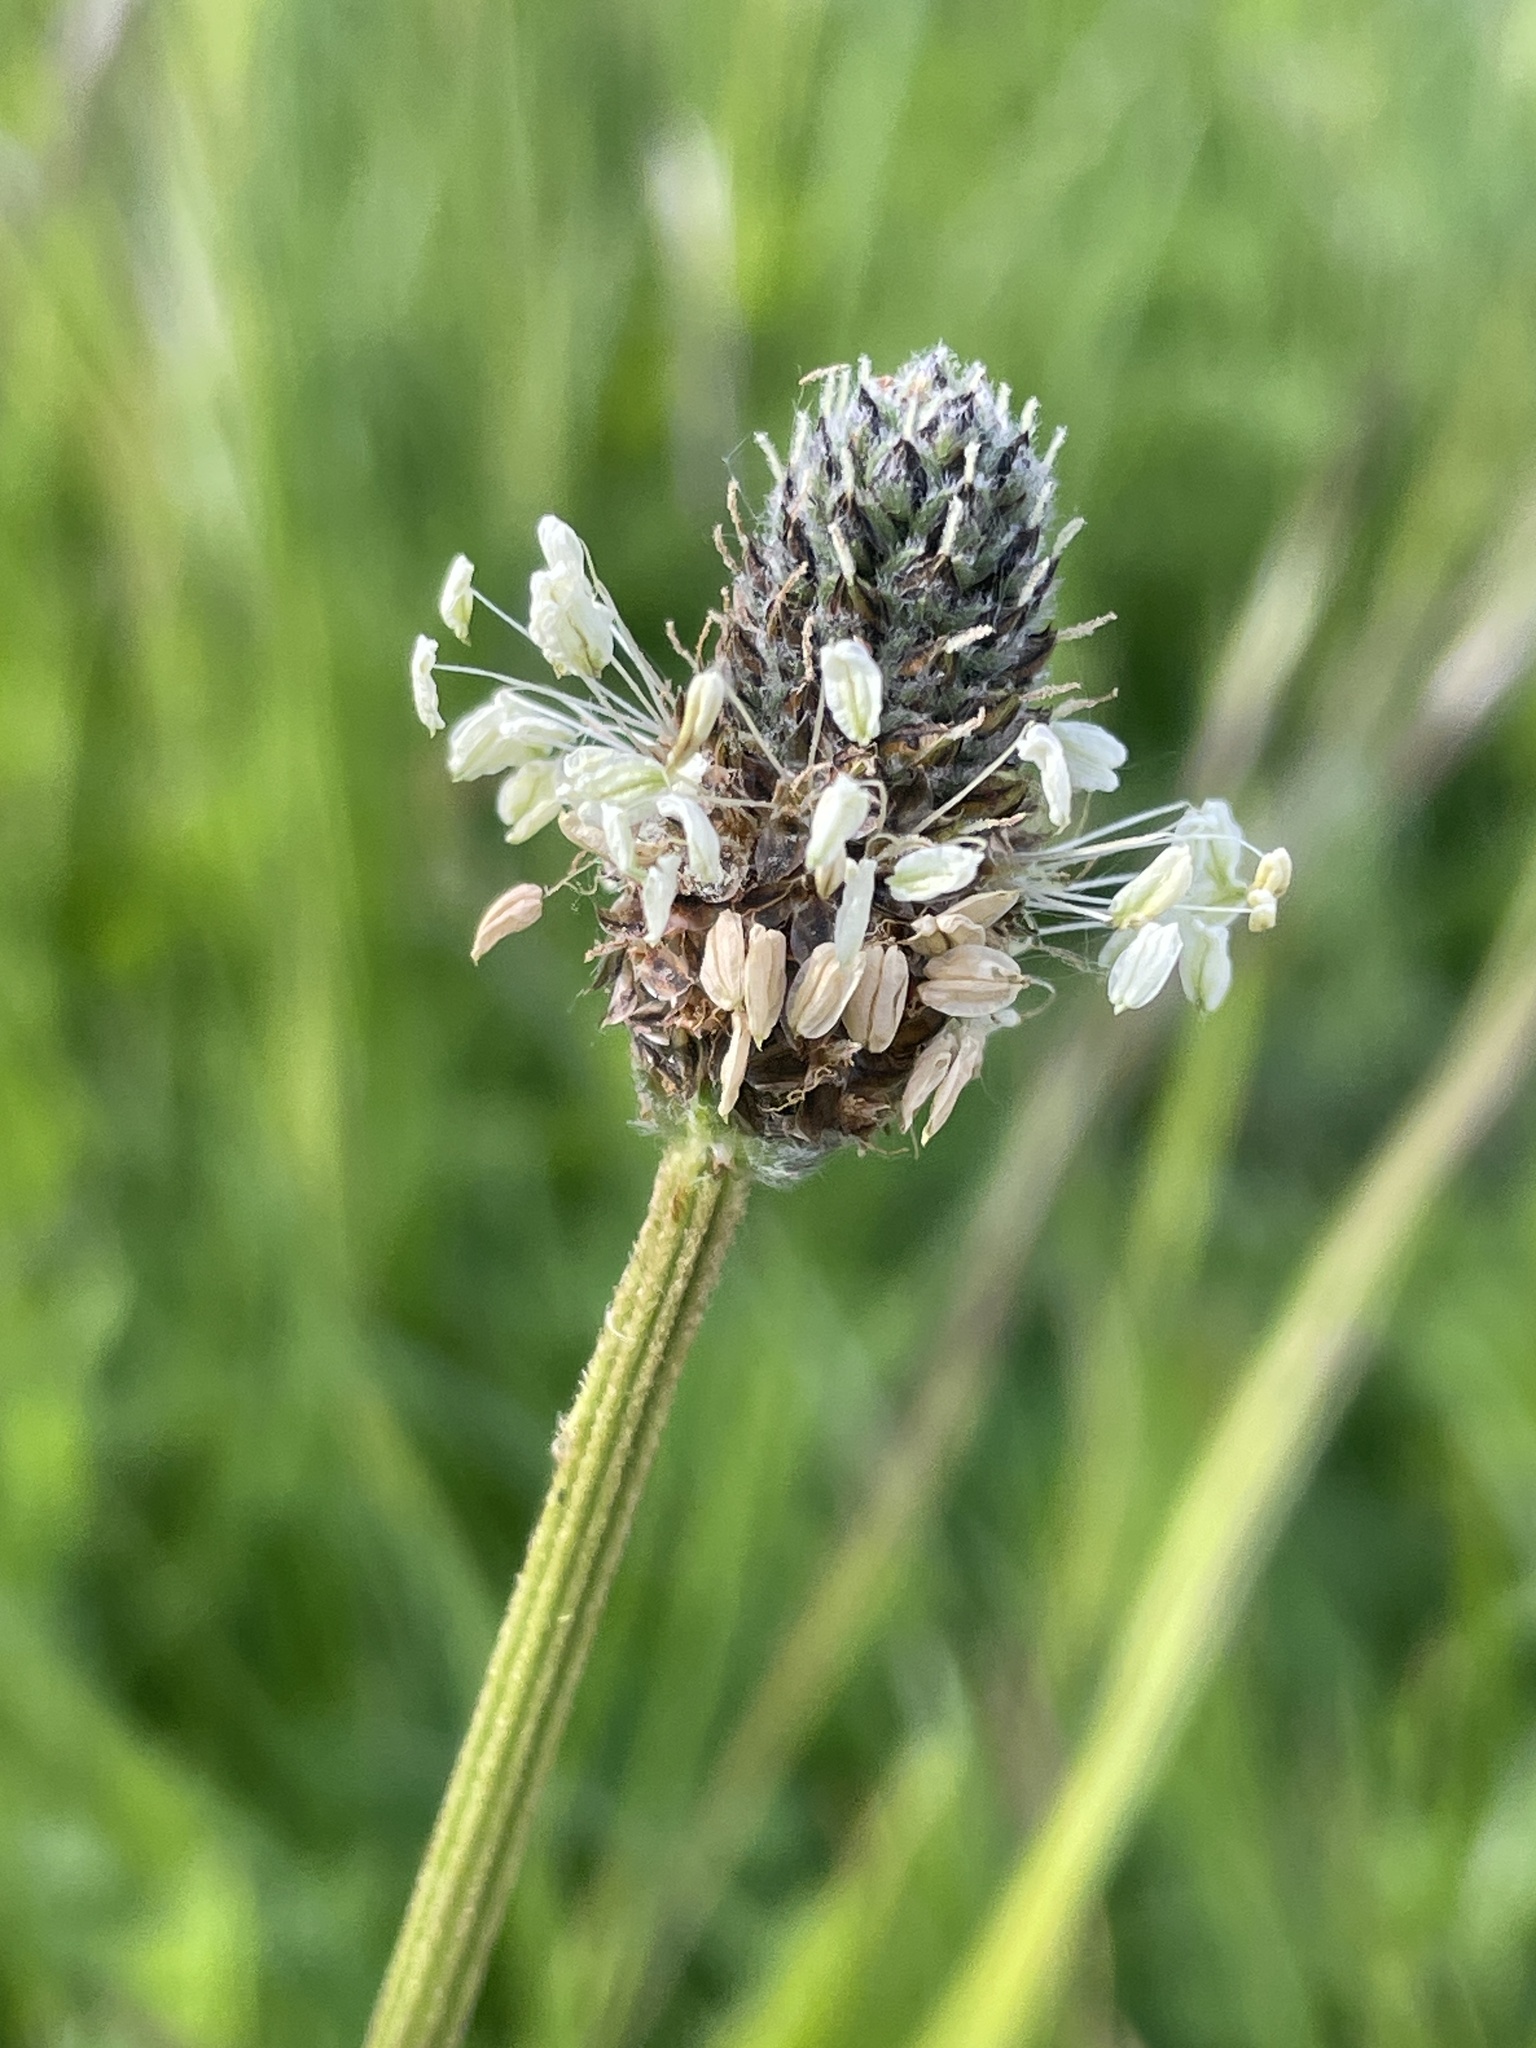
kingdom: Plantae
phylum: Tracheophyta
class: Magnoliopsida
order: Lamiales
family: Plantaginaceae
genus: Plantago
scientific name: Plantago lanceolata
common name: Ribwort plantain
